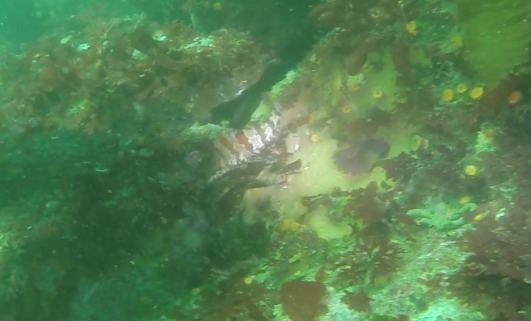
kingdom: Animalia
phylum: Chordata
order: Scorpaeniformes
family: Hexagrammidae
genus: Oxylebius
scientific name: Oxylebius pictus
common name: Painted greenling
